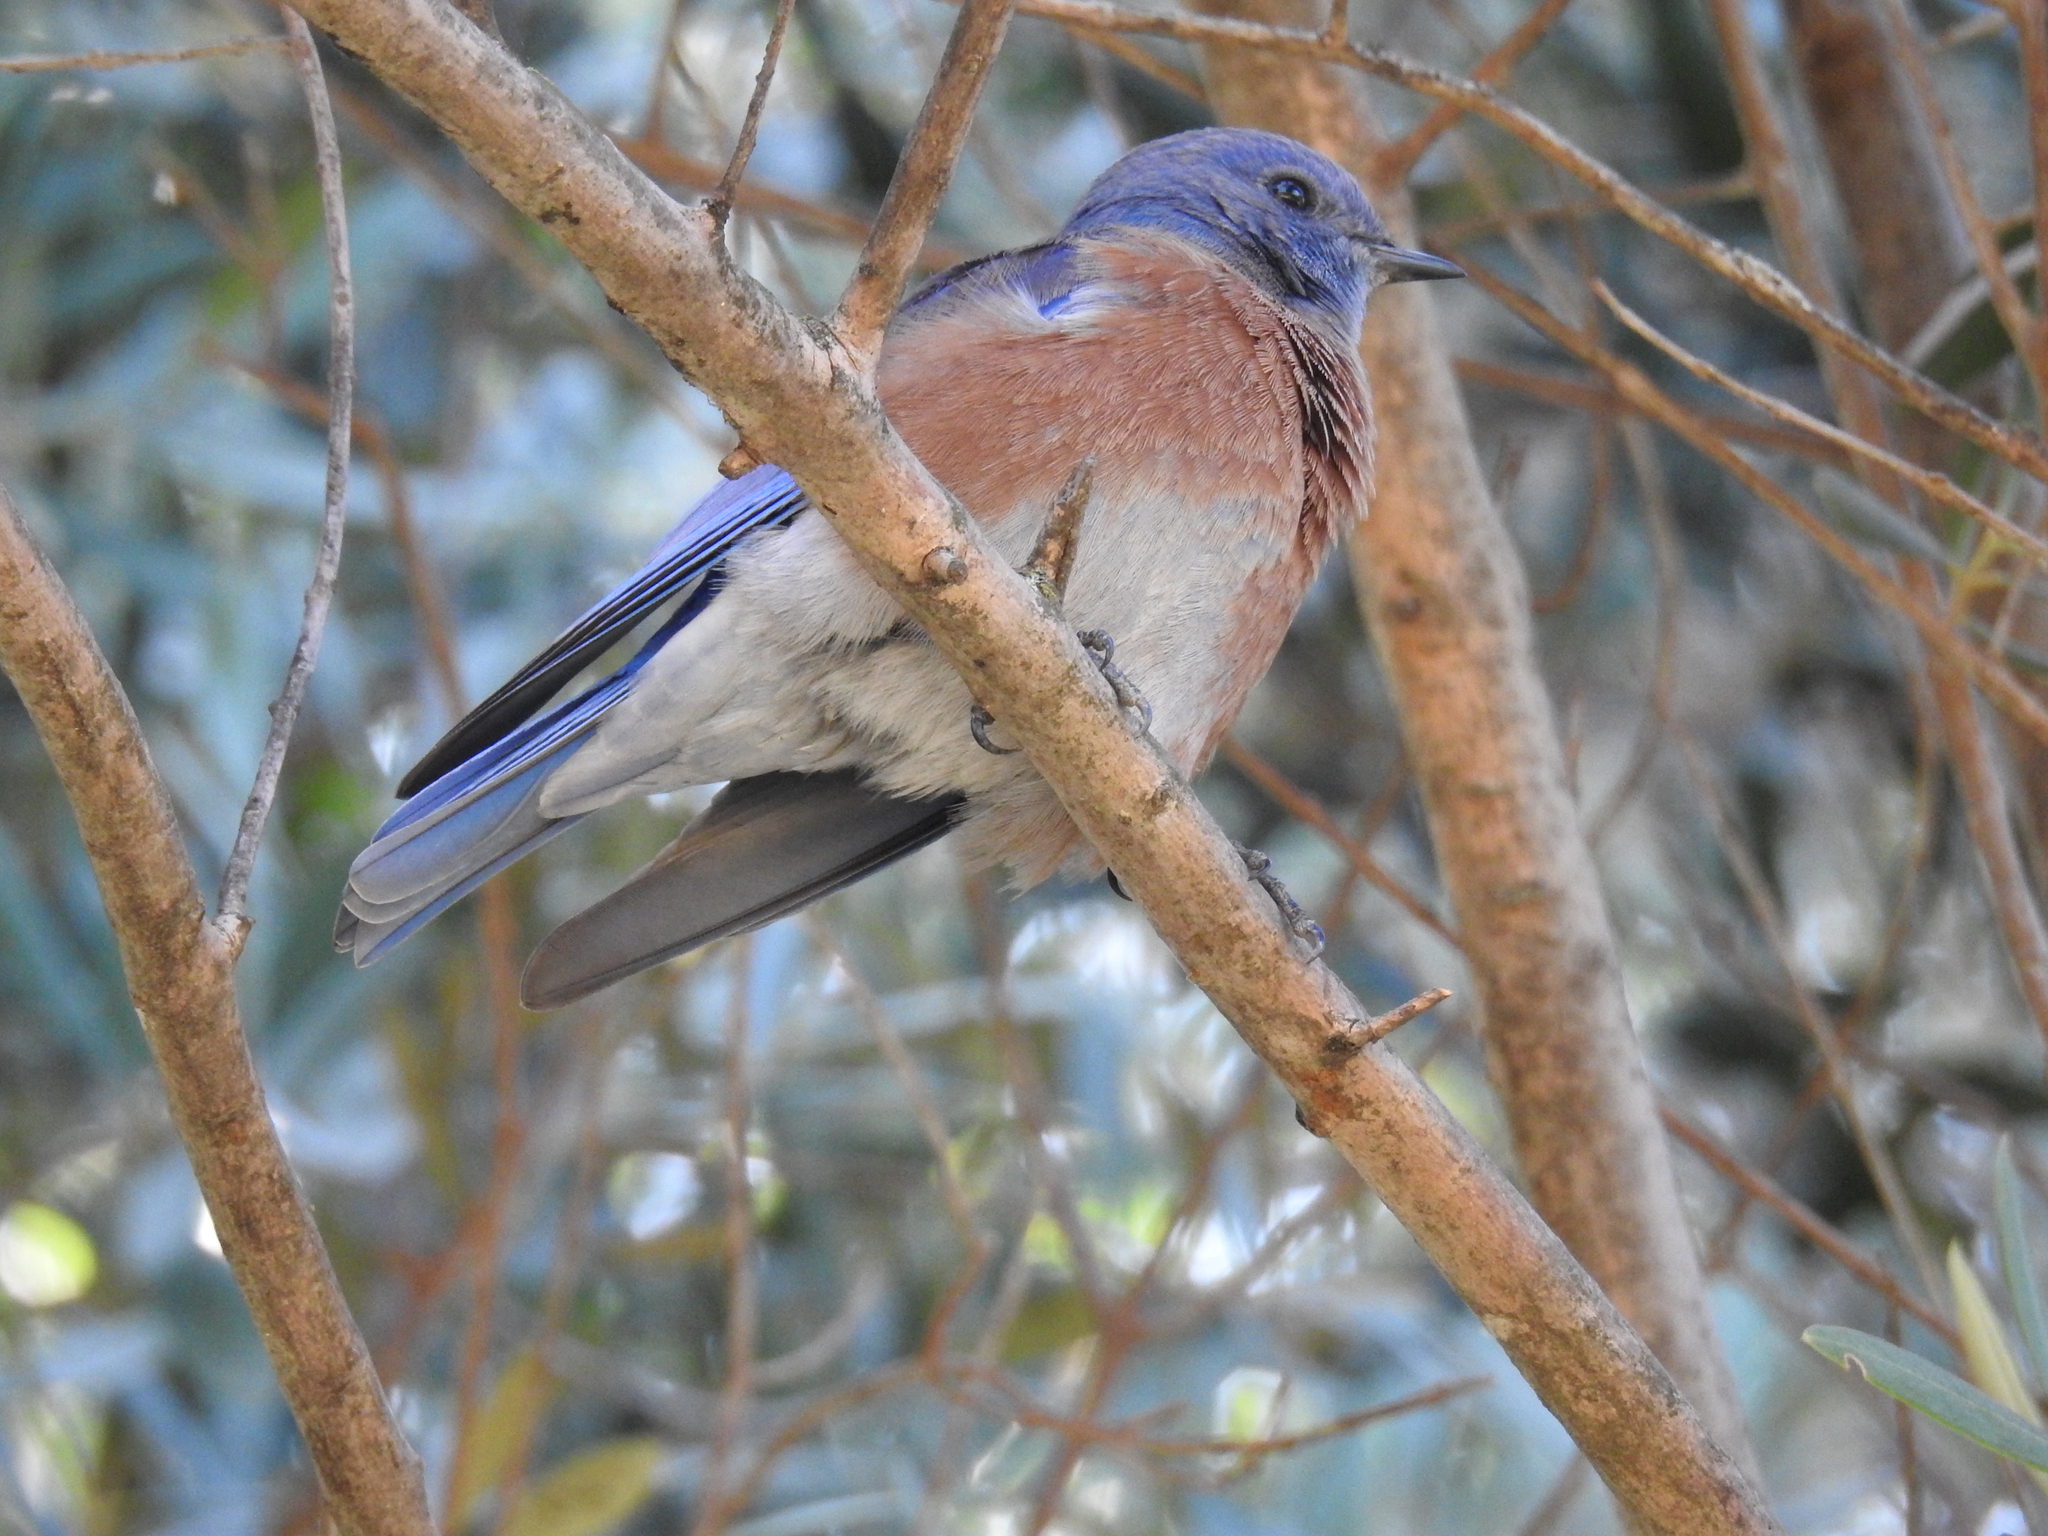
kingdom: Animalia
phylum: Chordata
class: Aves
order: Passeriformes
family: Turdidae
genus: Sialia
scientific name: Sialia mexicana
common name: Western bluebird
